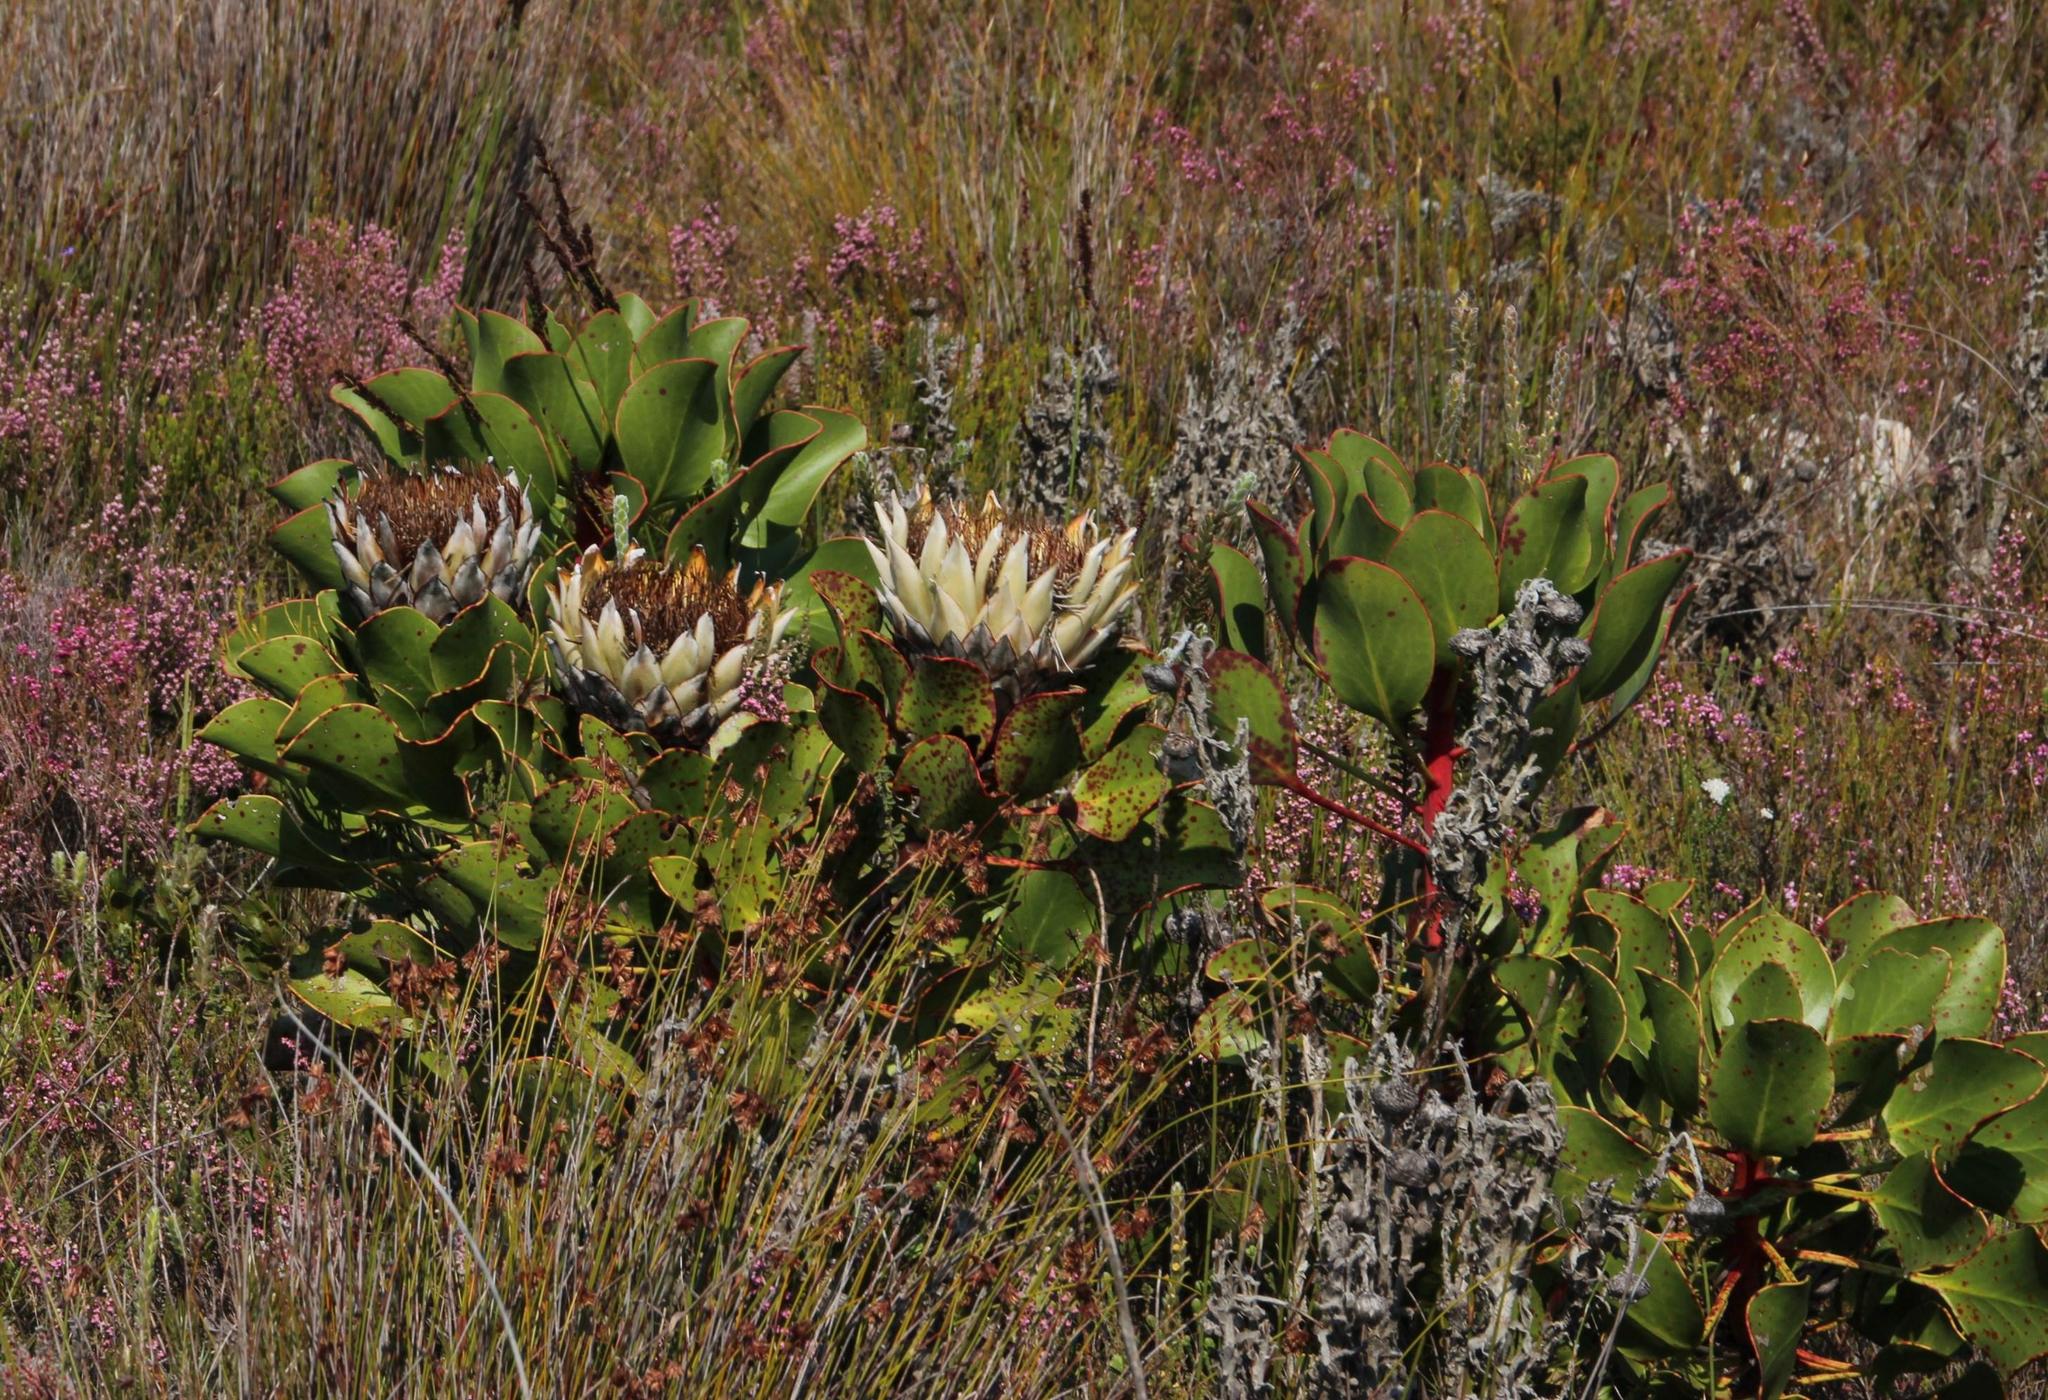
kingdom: Plantae
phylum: Tracheophyta
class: Magnoliopsida
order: Proteales
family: Proteaceae
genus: Protea
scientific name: Protea cynaroides
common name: King protea
